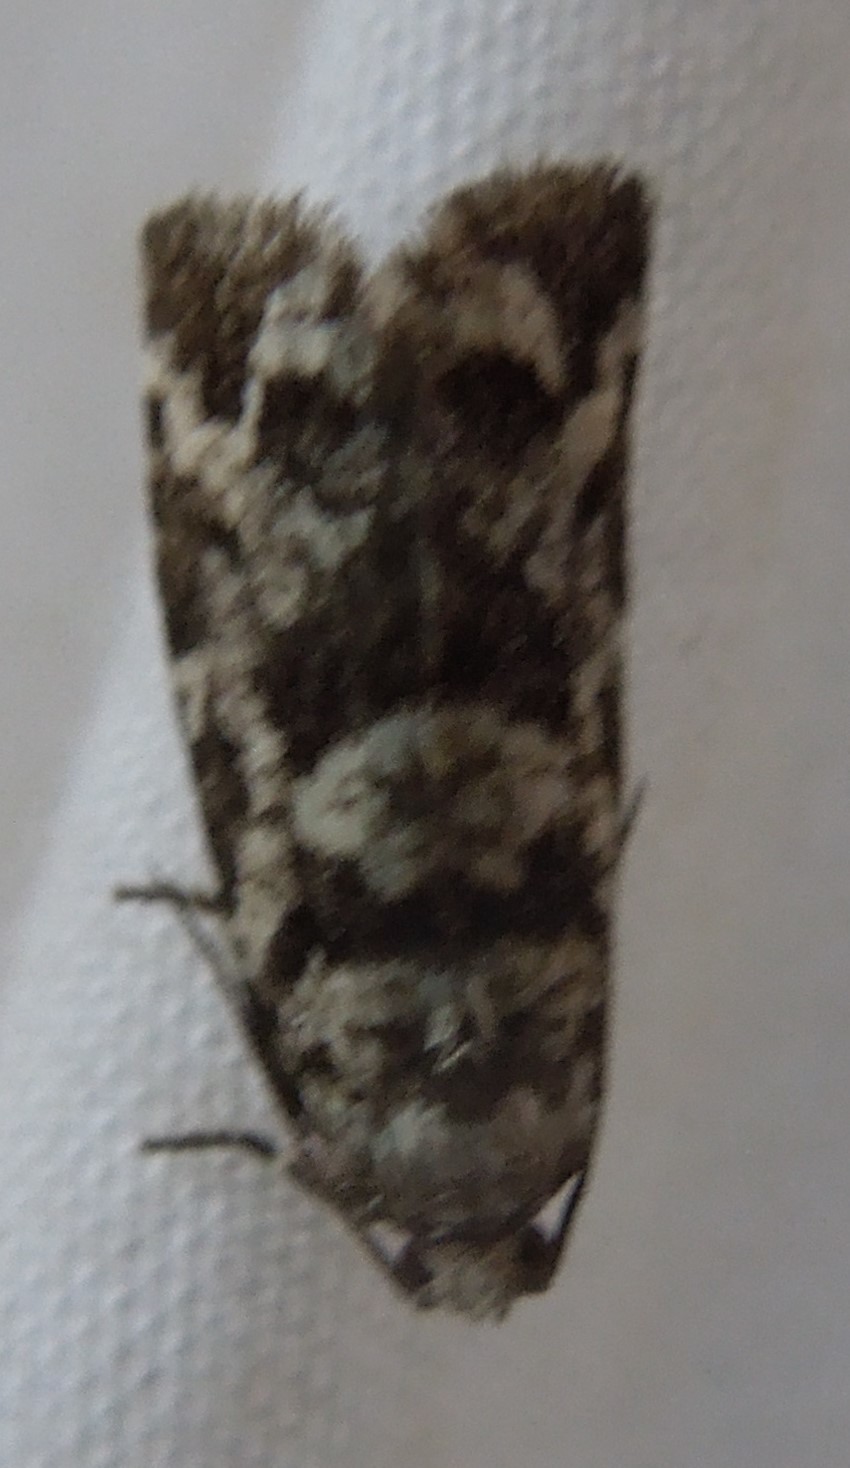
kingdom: Animalia
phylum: Arthropoda
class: Insecta
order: Lepidoptera
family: Tortricidae
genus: Archips
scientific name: Archips packardiana
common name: Spring spruce needle moth
